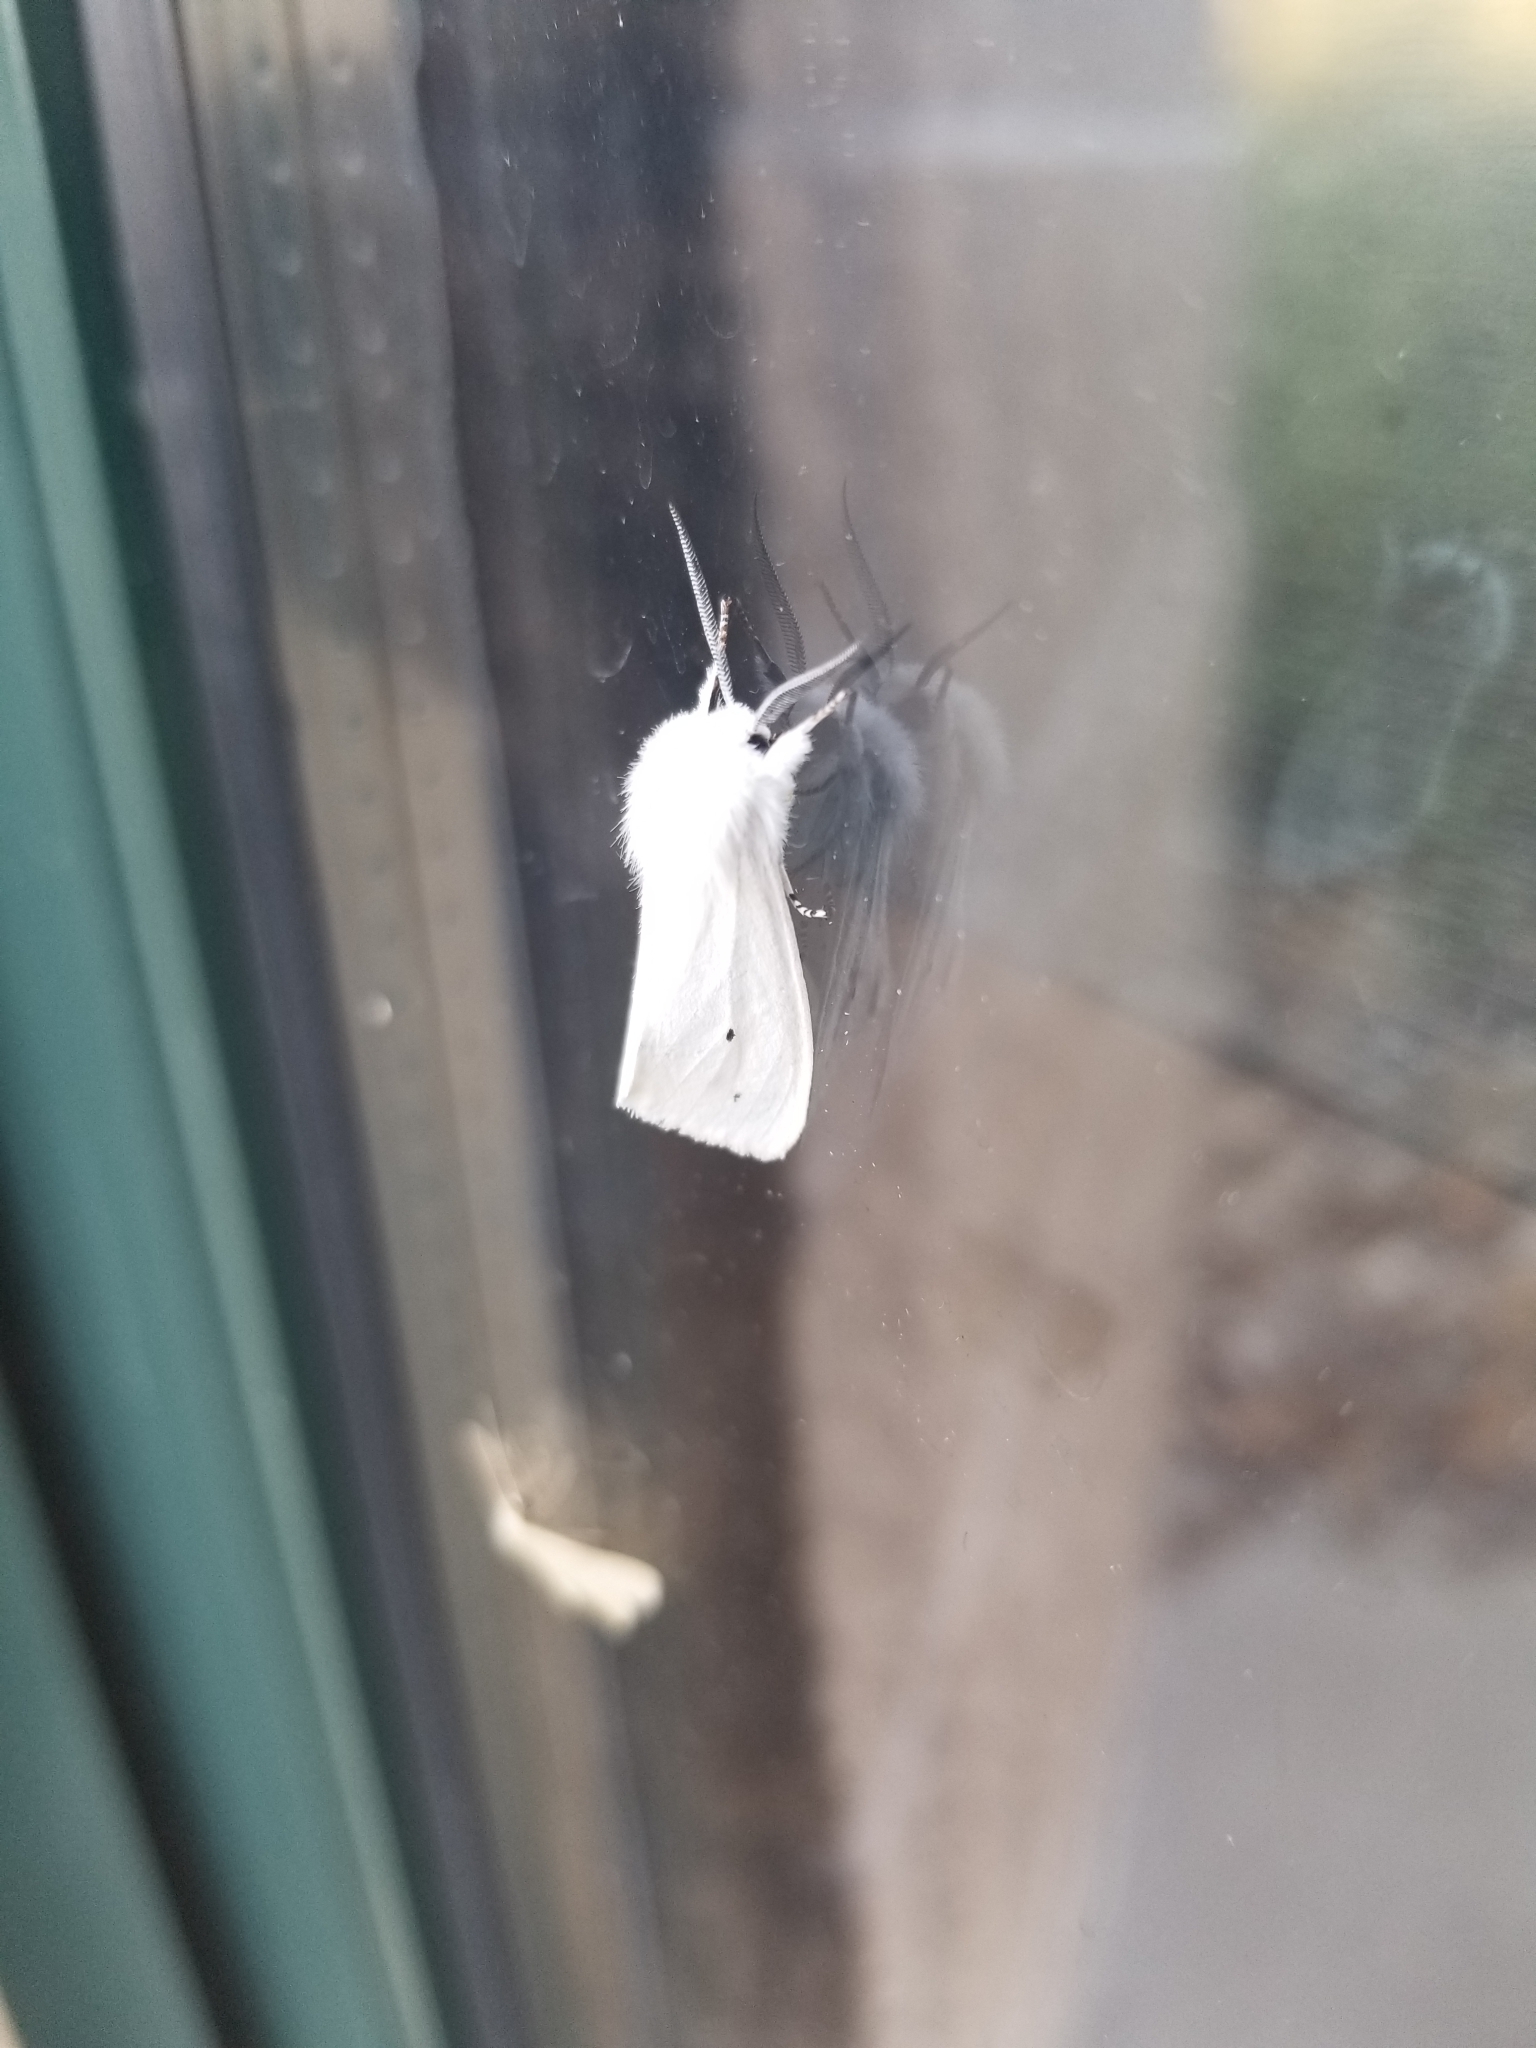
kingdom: Animalia
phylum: Arthropoda
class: Insecta
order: Lepidoptera
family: Erebidae
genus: Spilosoma
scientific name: Spilosoma virginica
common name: Virginia tiger moth
